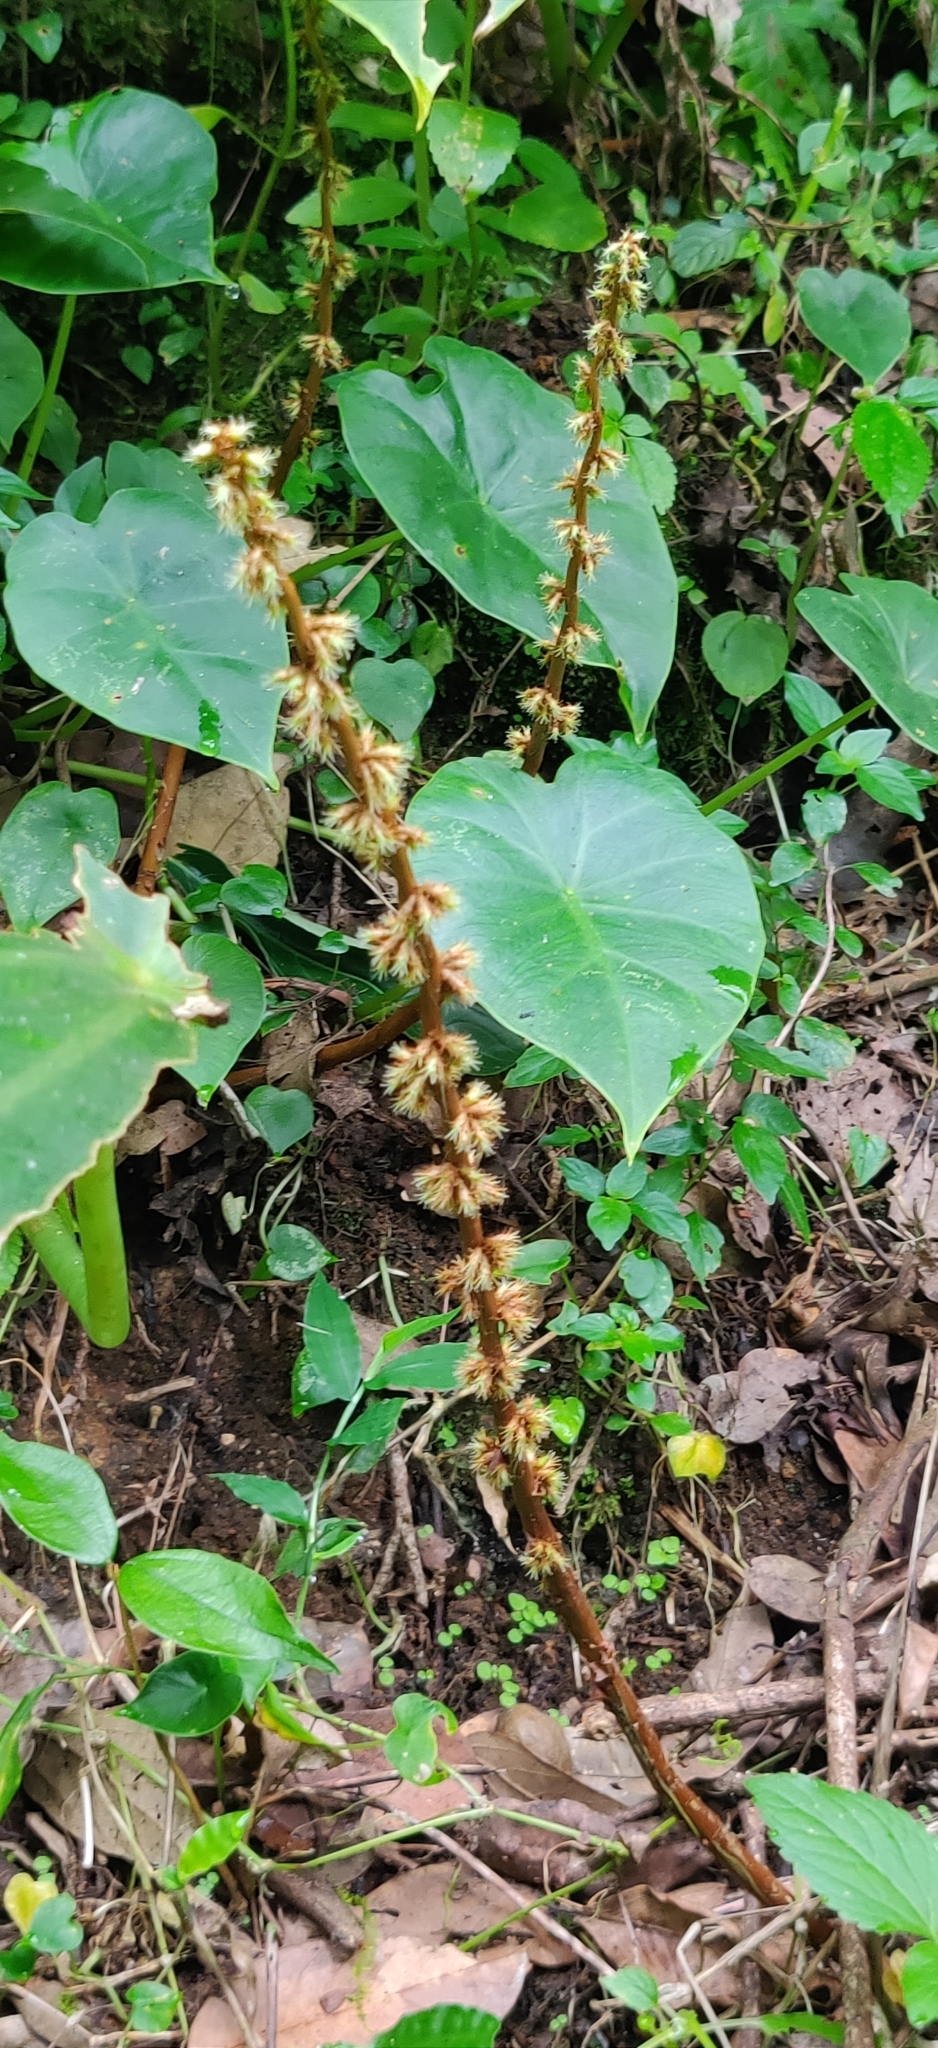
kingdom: Plantae
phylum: Tracheophyta
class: Liliopsida
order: Alismatales
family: Araceae
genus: Remusatia
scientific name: Remusatia vivipara
